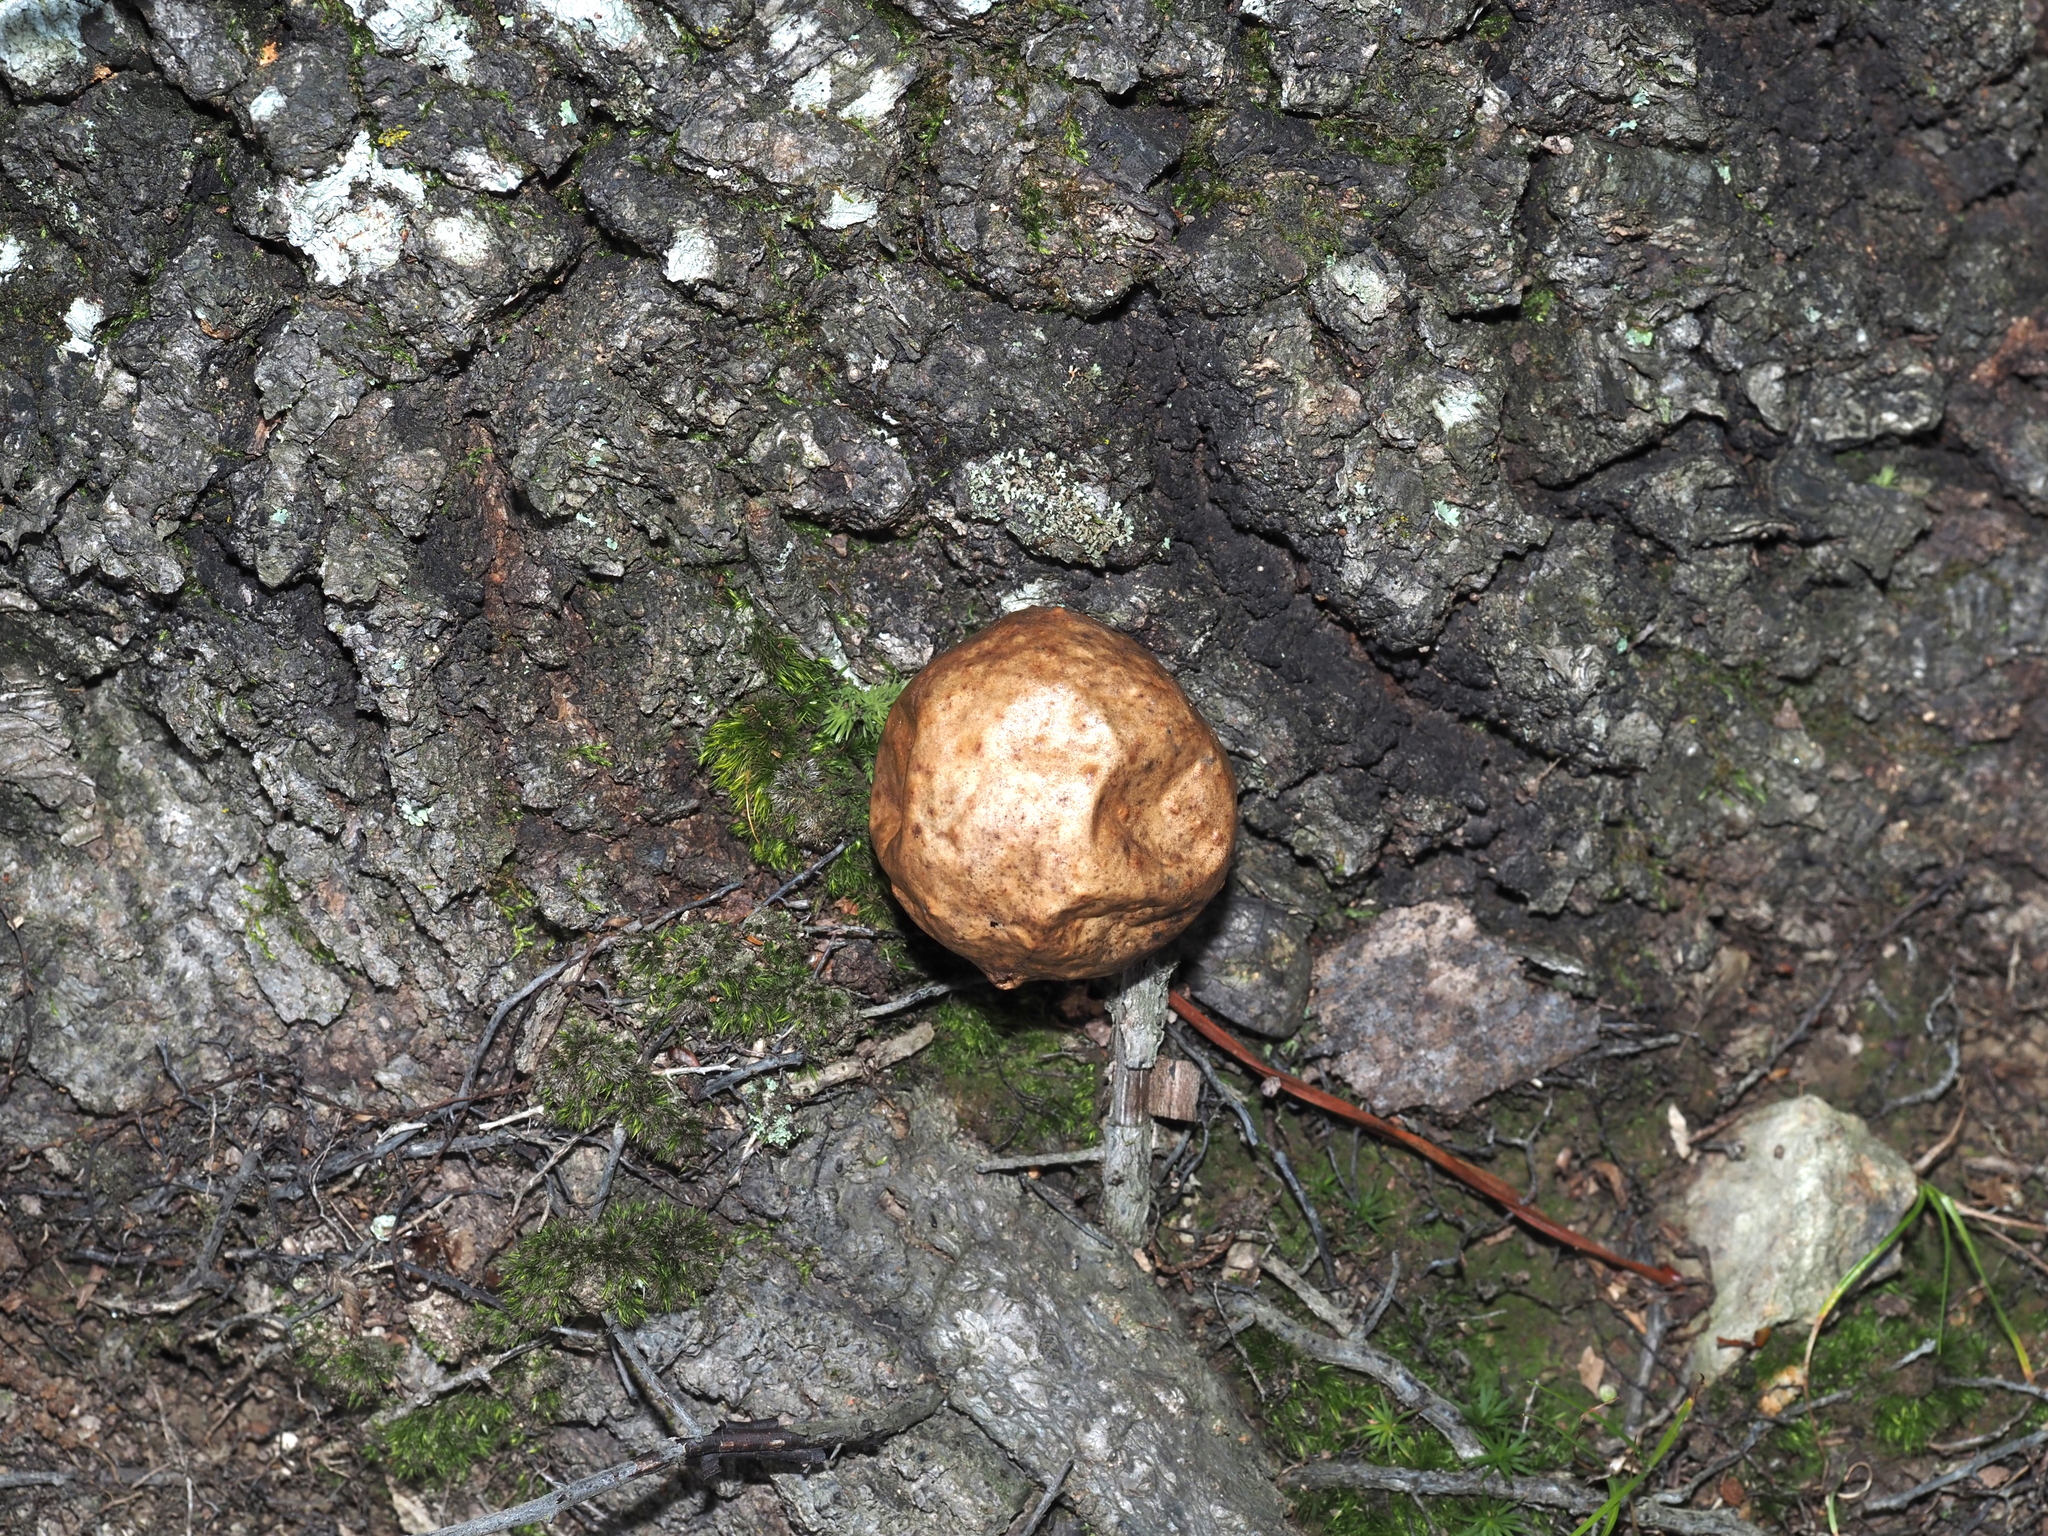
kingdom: Animalia
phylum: Arthropoda
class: Insecta
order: Hymenoptera
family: Cynipidae
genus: Amphibolips
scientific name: Amphibolips
